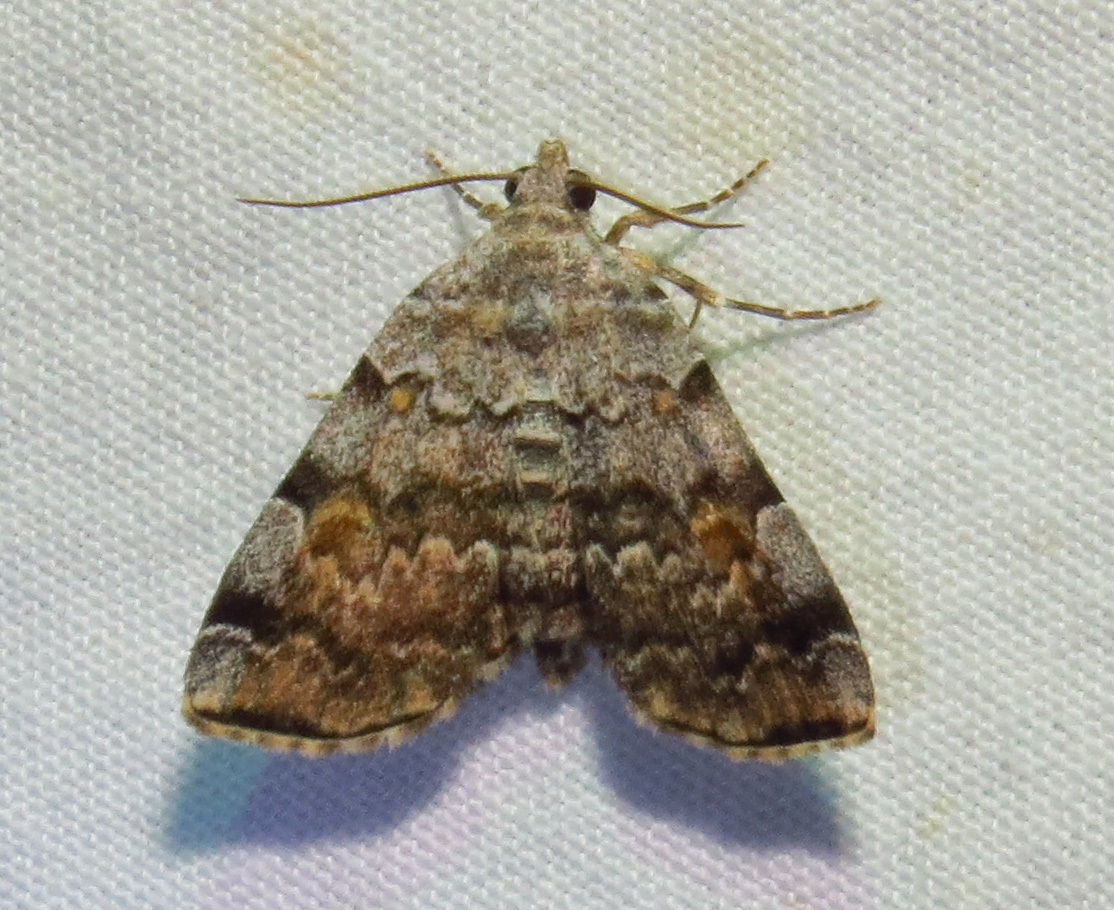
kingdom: Animalia
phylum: Arthropoda
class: Insecta
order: Lepidoptera
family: Erebidae
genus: Idia
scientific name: Idia americalis
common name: American idia moth
